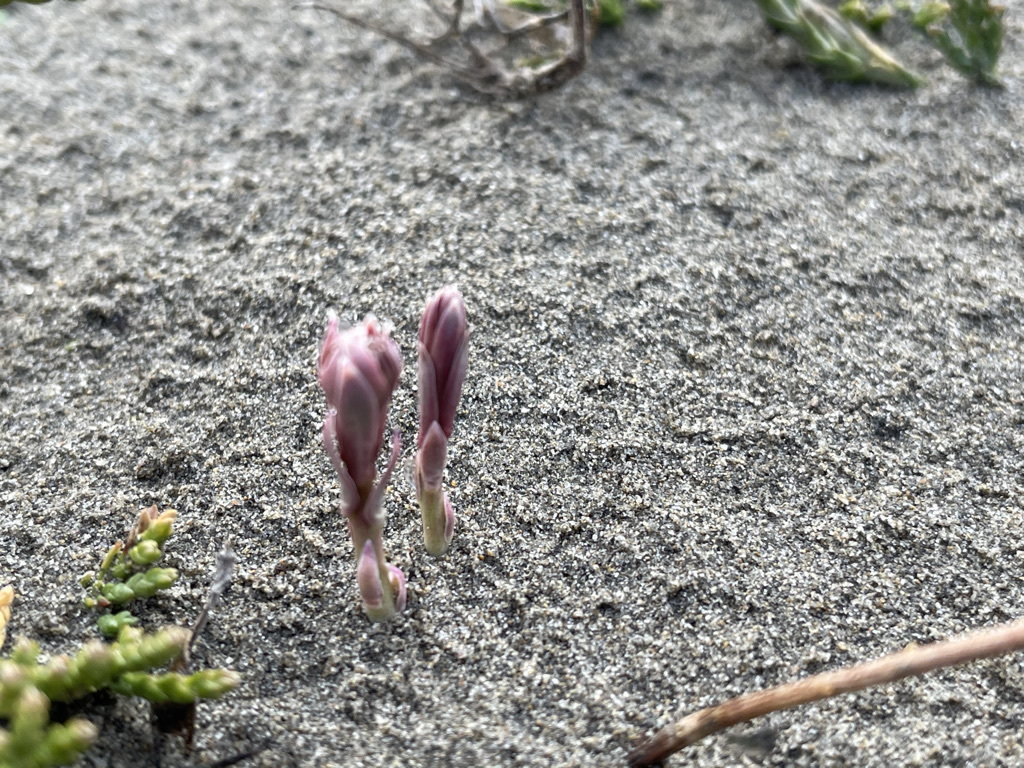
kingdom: Plantae
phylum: Tracheophyta
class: Magnoliopsida
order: Santalales
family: Comandraceae
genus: Comandra
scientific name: Comandra umbellata
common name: Bastard toadflax
